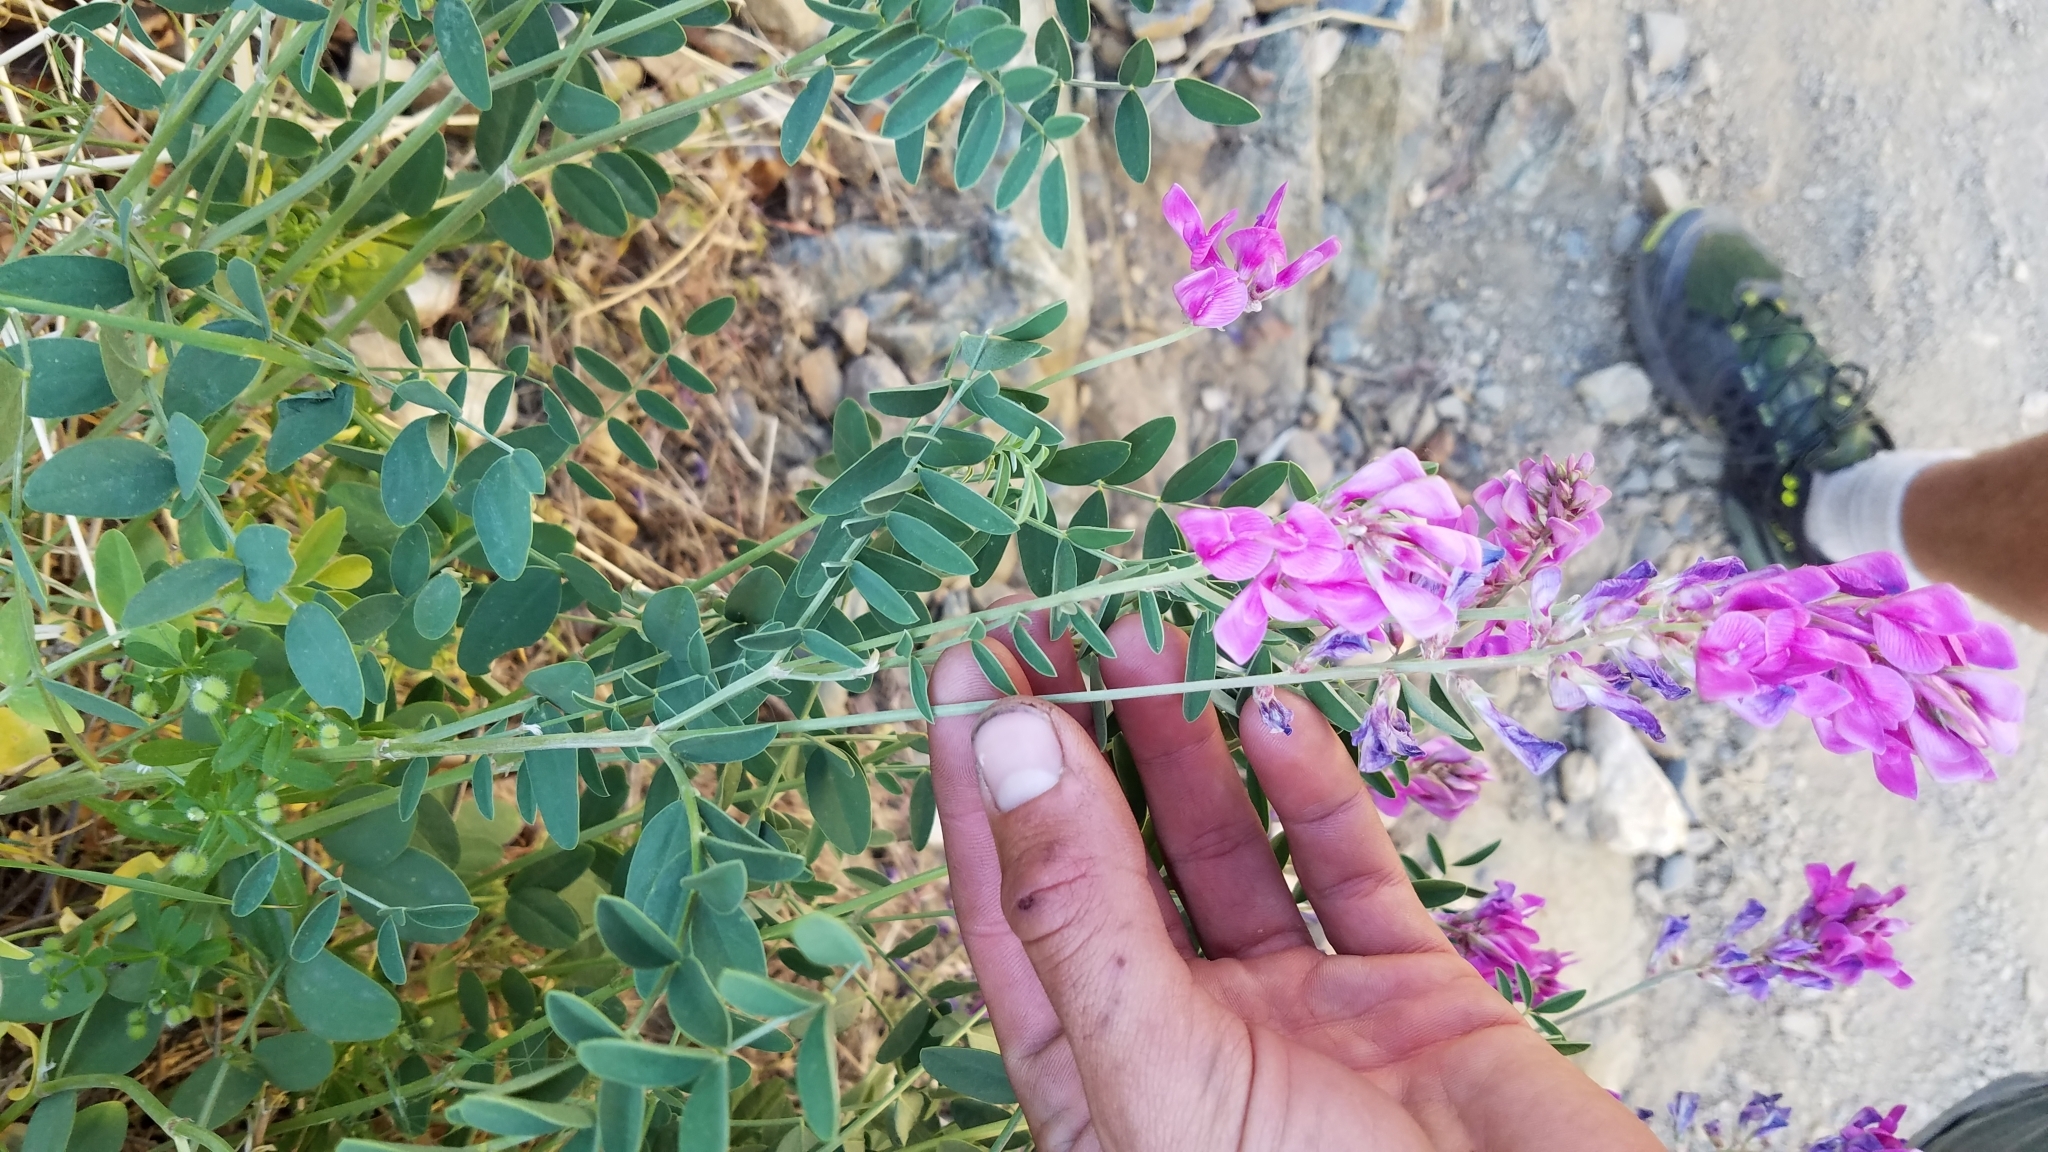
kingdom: Plantae
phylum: Tracheophyta
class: Magnoliopsida
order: Fabales
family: Fabaceae
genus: Hedysarum
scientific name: Hedysarum boreale
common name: Northern sweet-vetch
